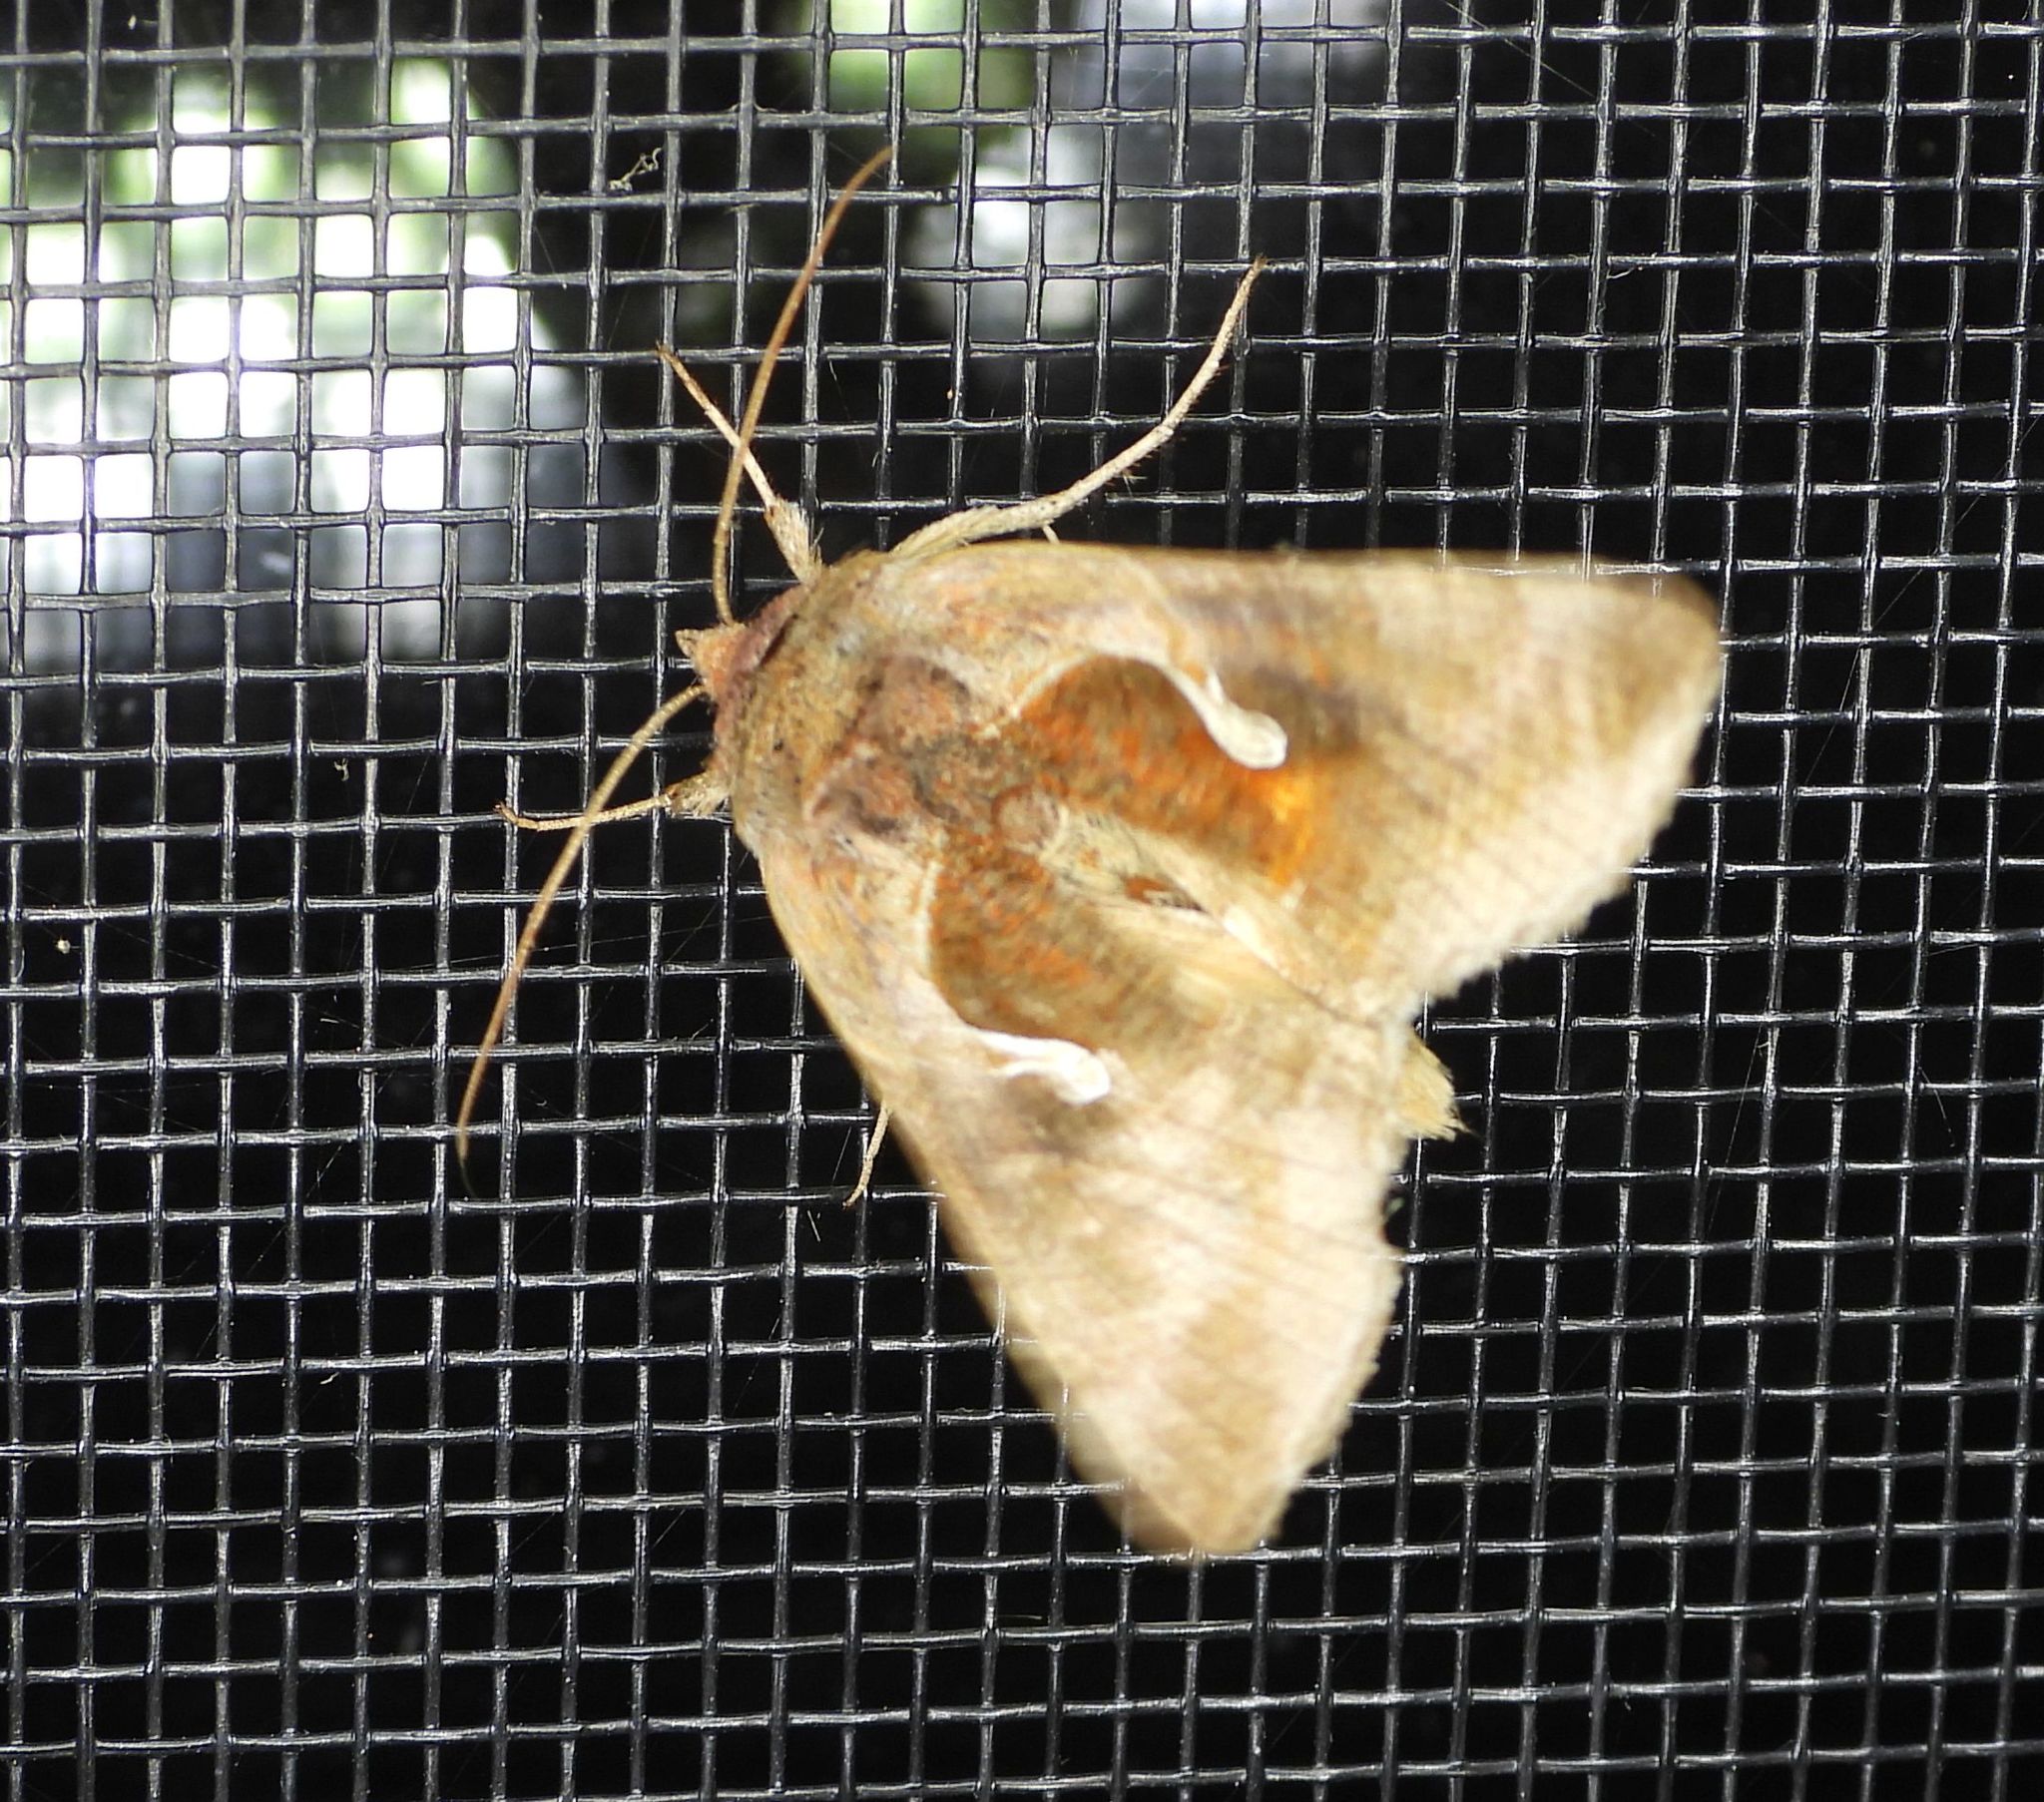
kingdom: Animalia
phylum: Arthropoda
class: Insecta
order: Lepidoptera
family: Noctuidae
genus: Anagrapha
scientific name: Anagrapha falcifera
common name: Celery looper
